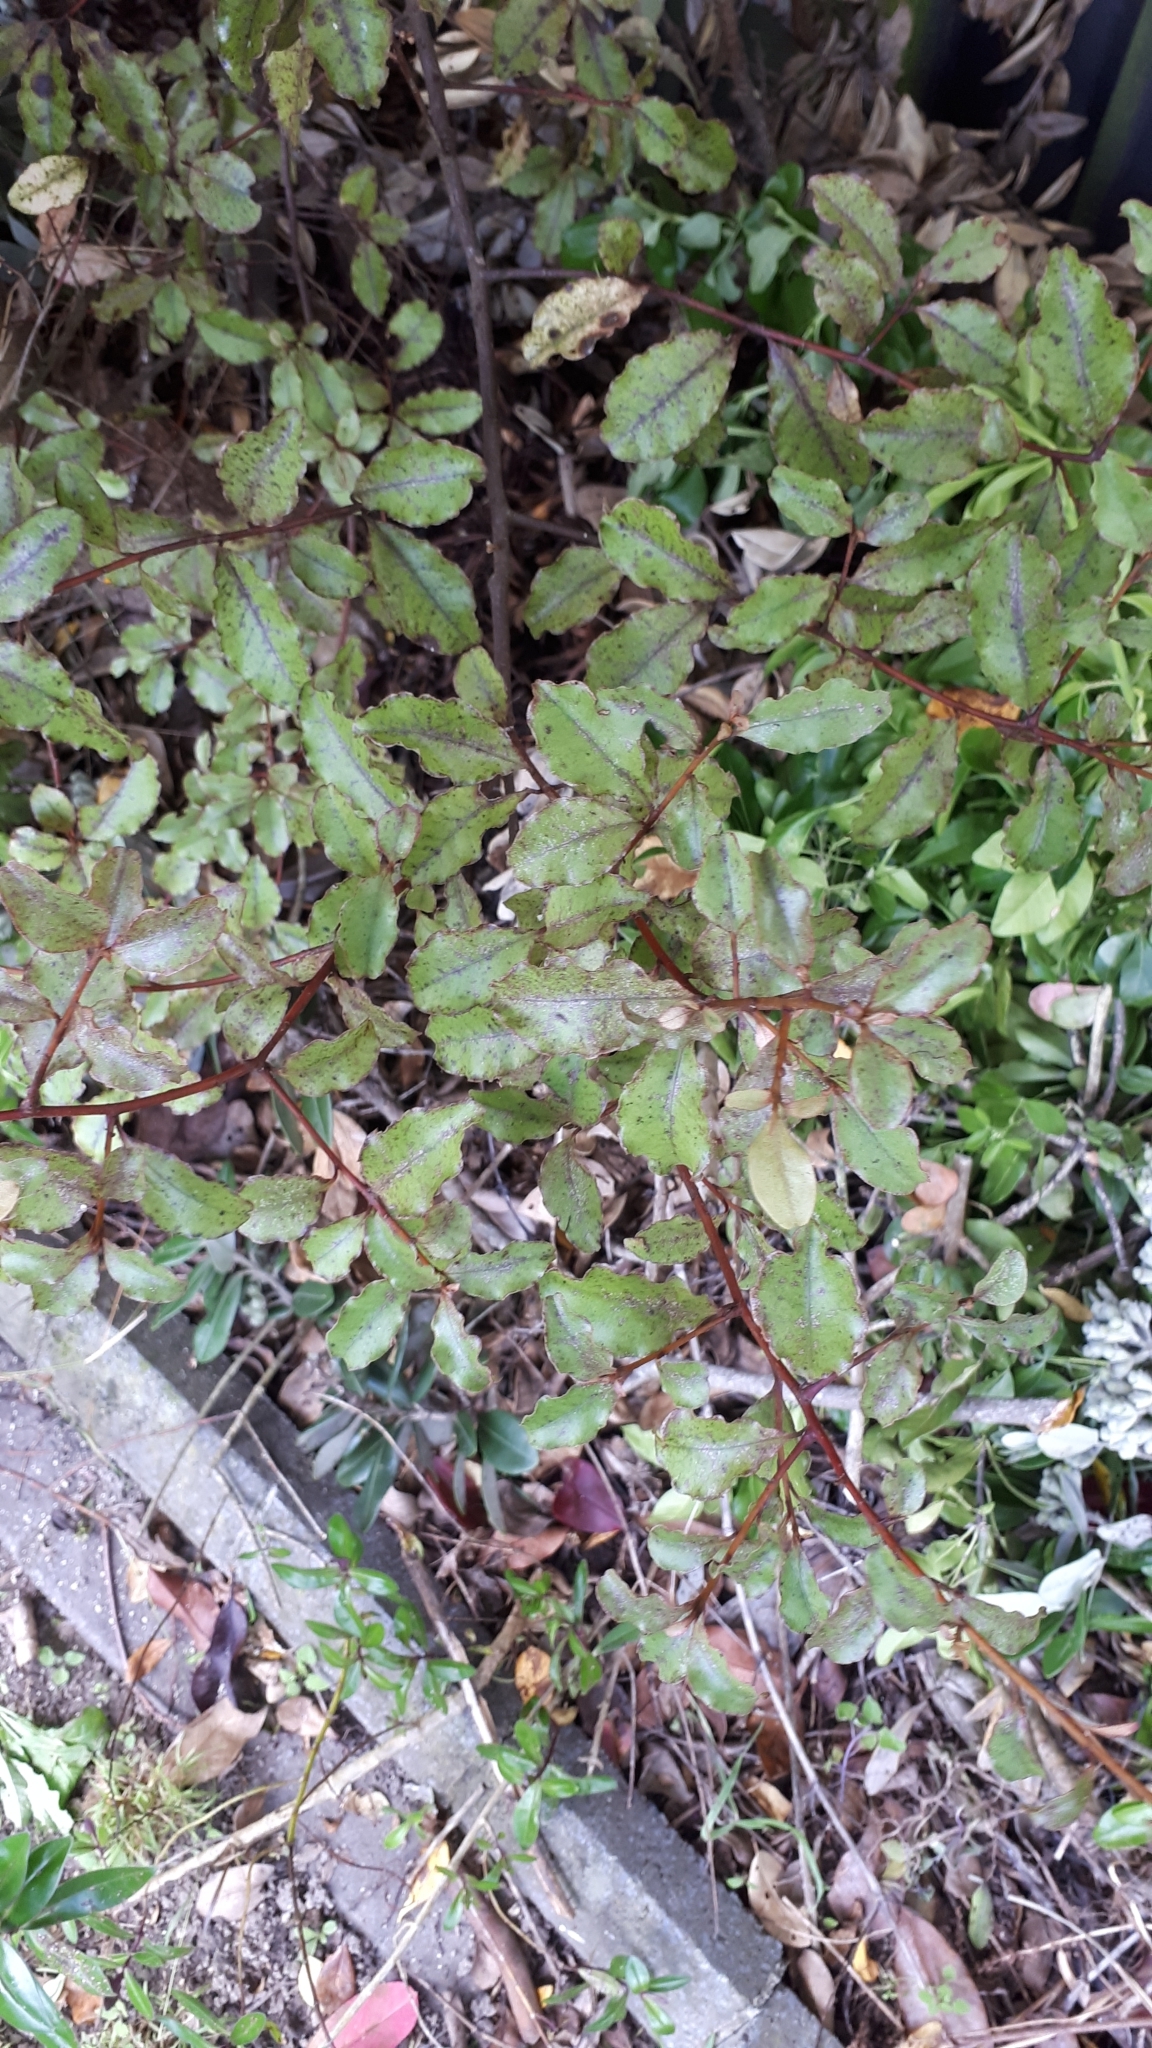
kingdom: Plantae
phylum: Tracheophyta
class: Magnoliopsida
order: Ericales
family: Primulaceae
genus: Myrsine
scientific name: Myrsine australis
